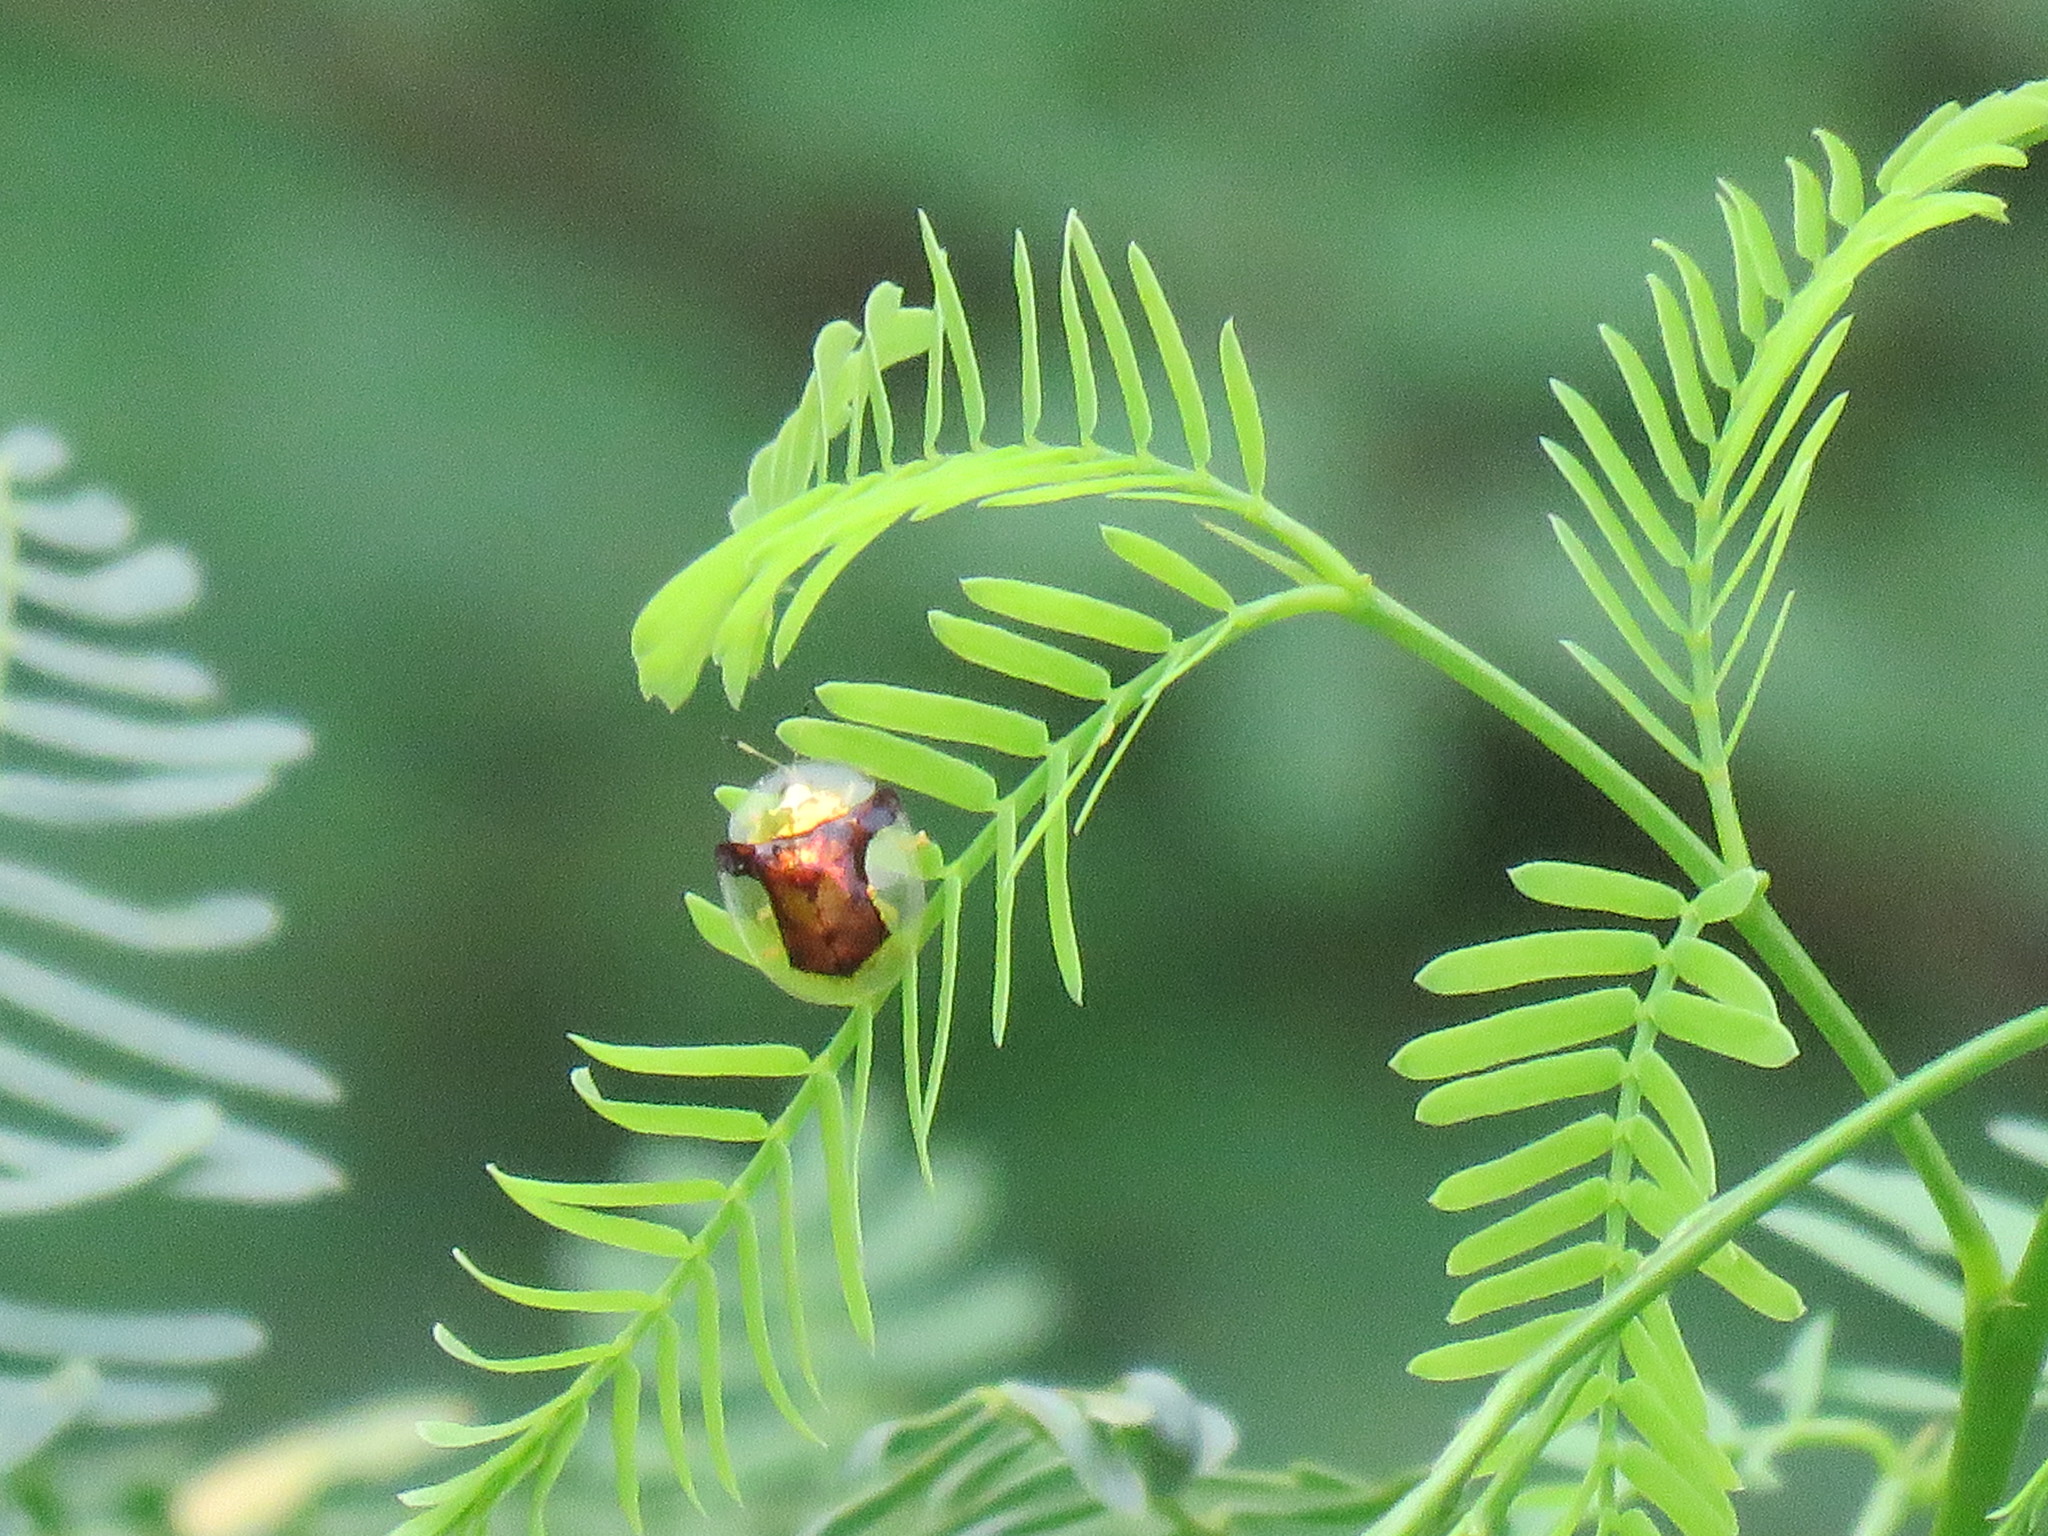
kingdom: Animalia
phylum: Arthropoda
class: Insecta
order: Coleoptera
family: Chrysomelidae
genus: Aspidimorpha
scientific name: Aspidimorpha sanctaecrucis
